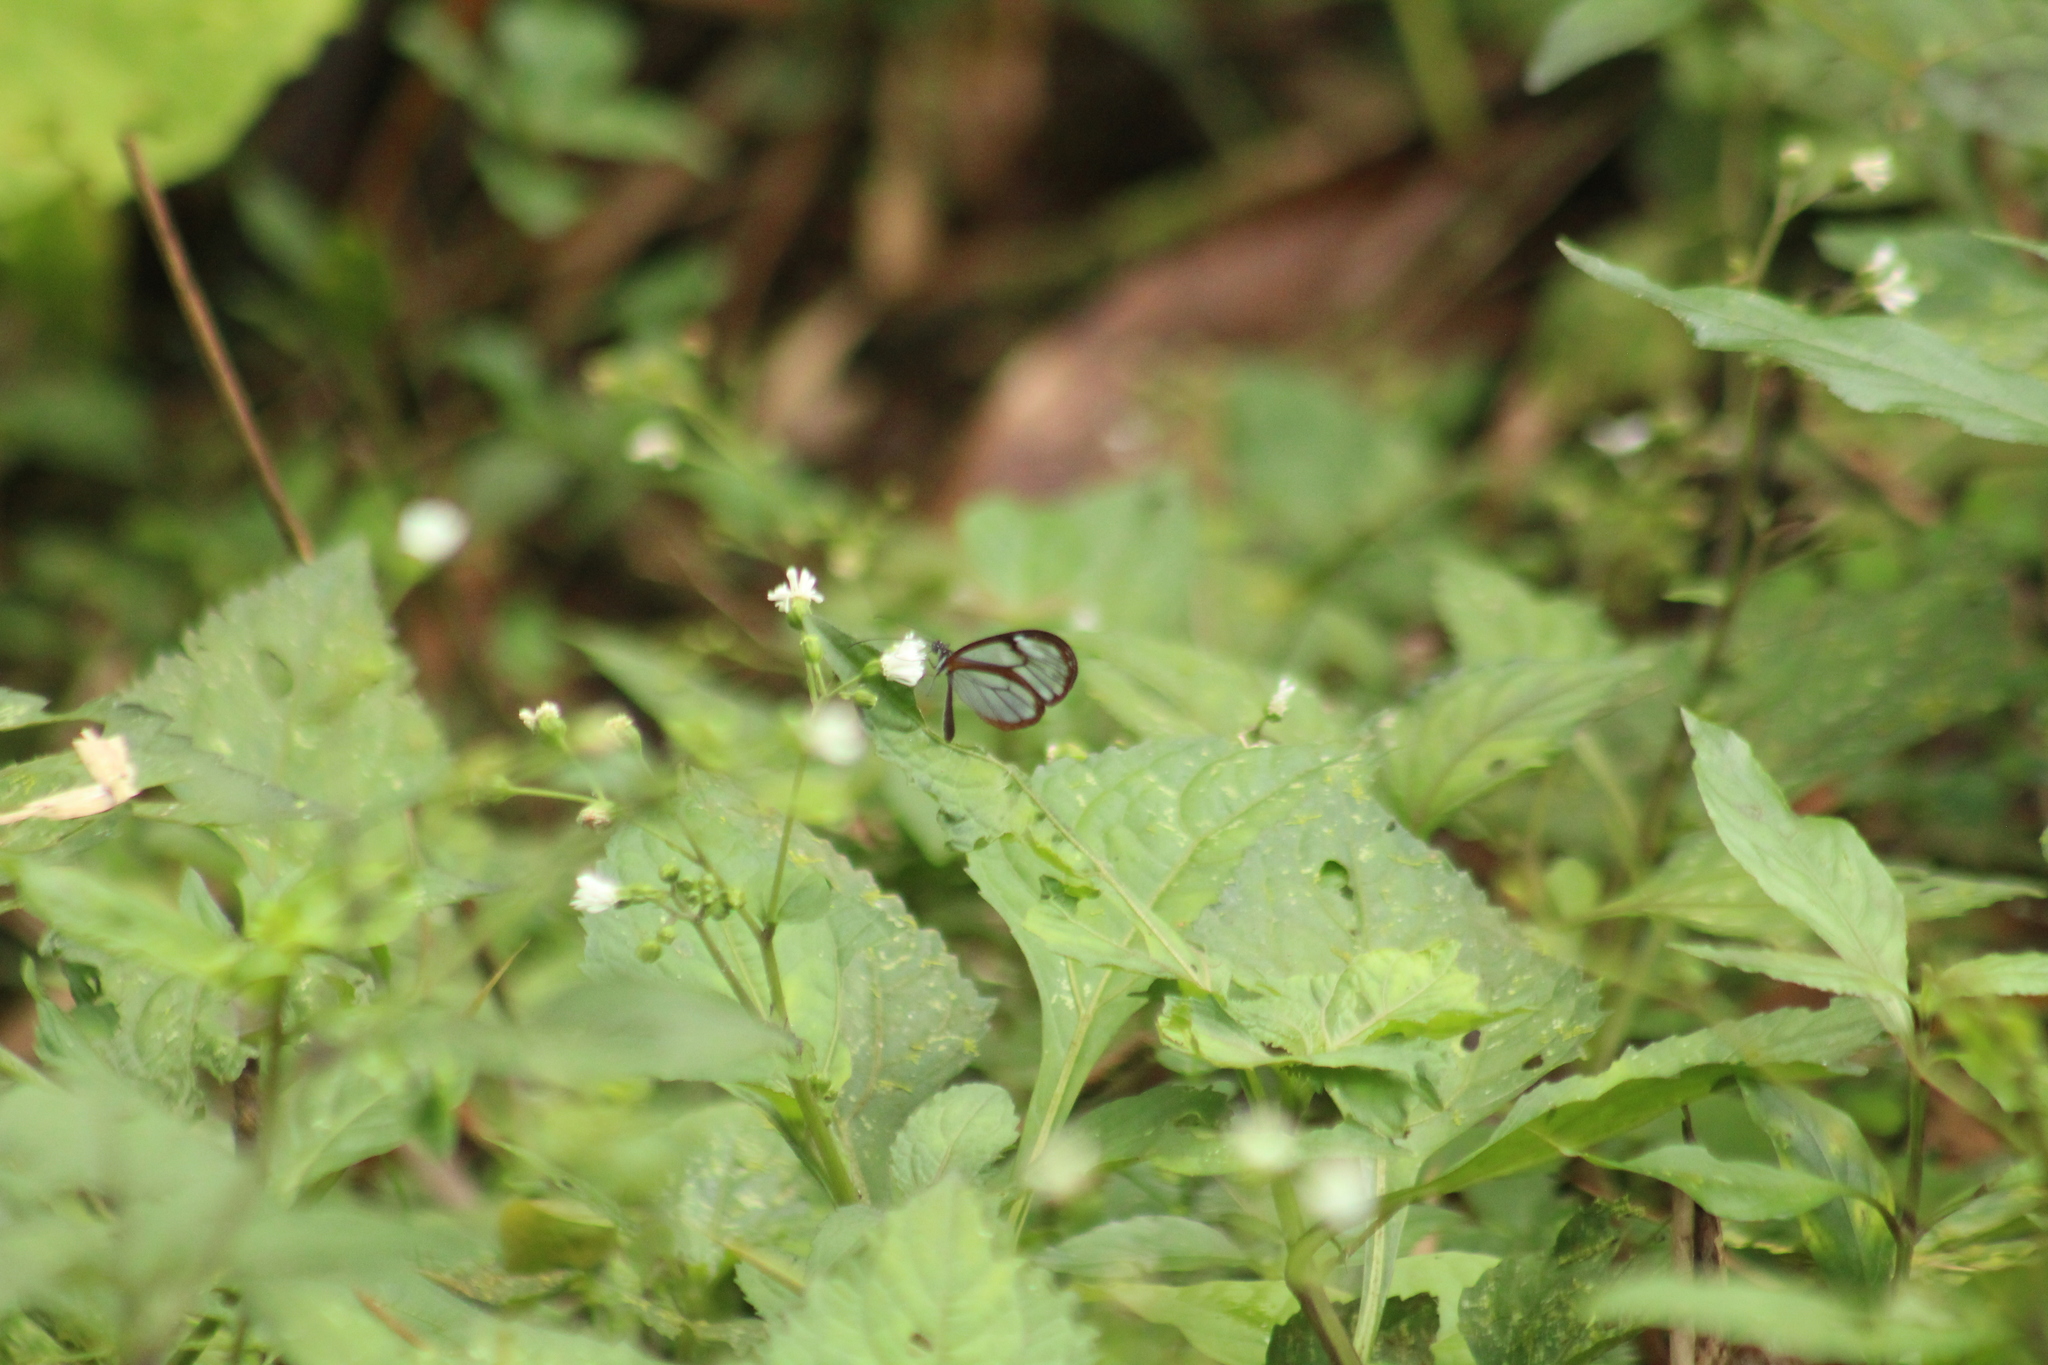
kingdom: Animalia
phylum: Arthropoda
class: Insecta
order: Lepidoptera
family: Nymphalidae
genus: Pseudoscada
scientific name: Pseudoscada timna
